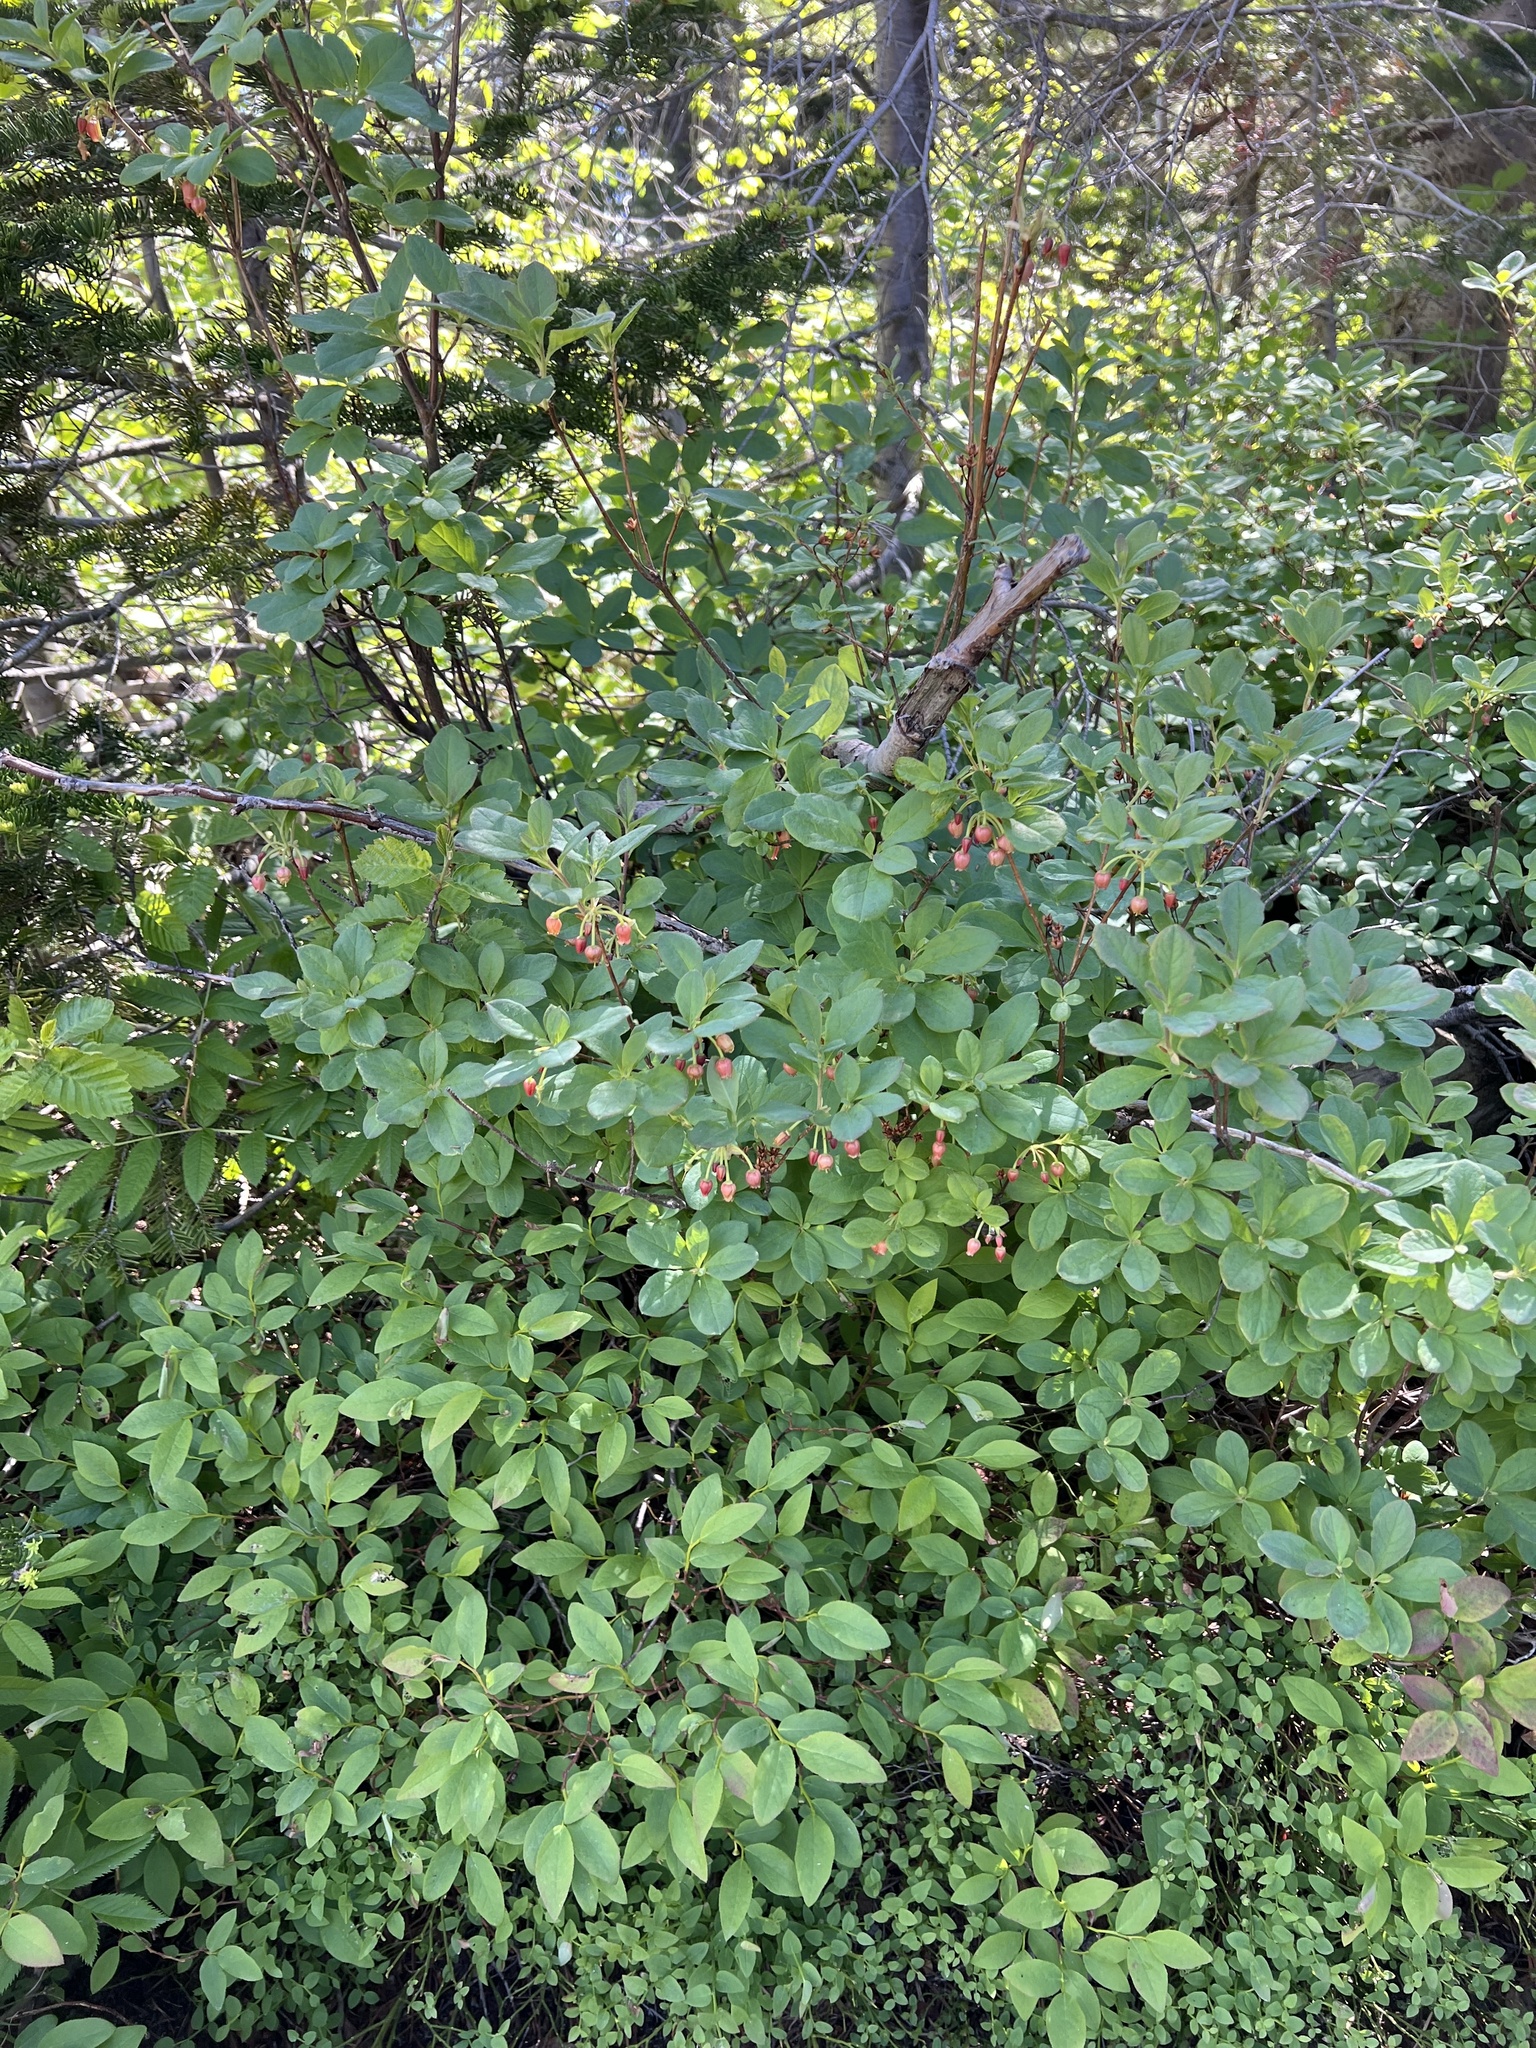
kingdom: Plantae
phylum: Tracheophyta
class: Magnoliopsida
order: Ericales
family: Ericaceae
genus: Rhododendron
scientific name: Rhododendron menziesii
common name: Pacific menziesia
